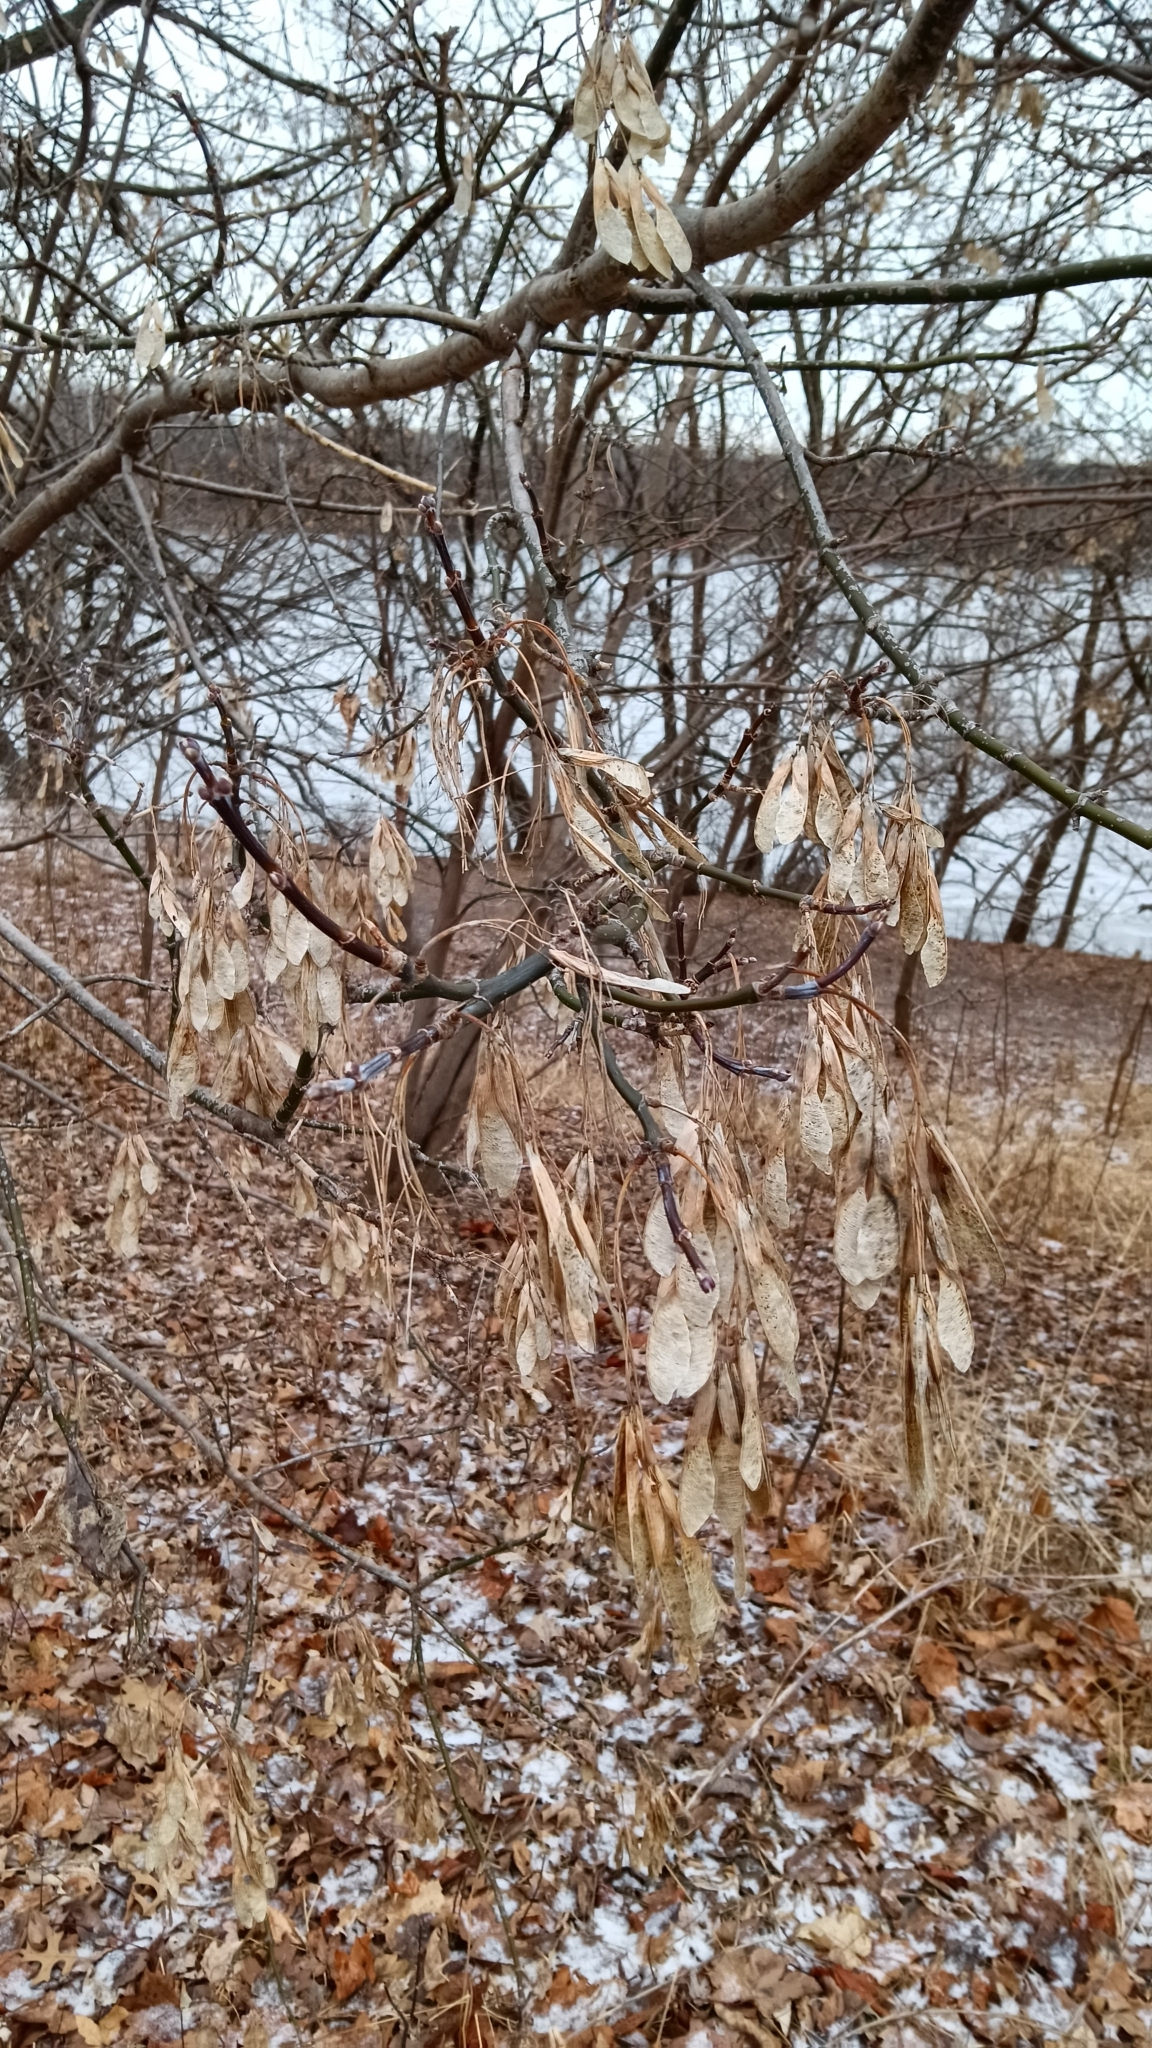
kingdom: Plantae
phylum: Tracheophyta
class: Magnoliopsida
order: Sapindales
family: Sapindaceae
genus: Acer
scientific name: Acer negundo
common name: Ashleaf maple
